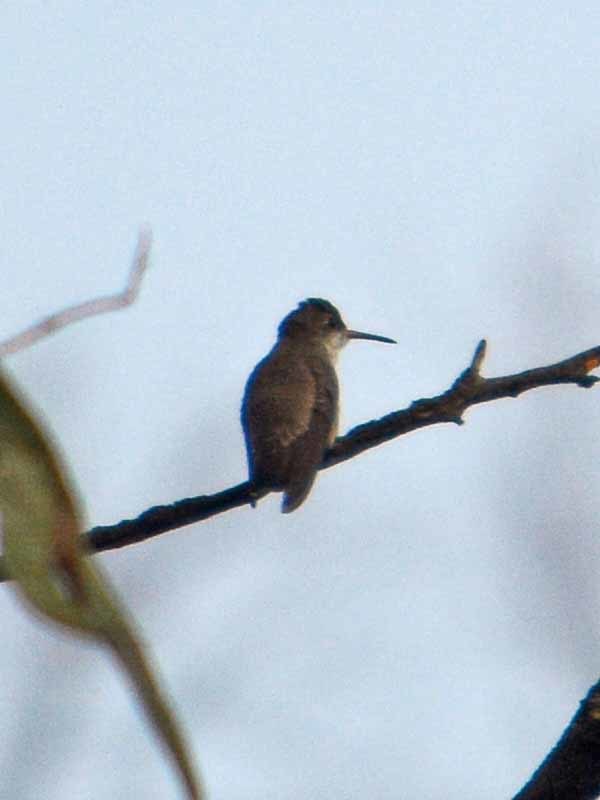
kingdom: Animalia
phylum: Chordata
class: Aves
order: Apodiformes
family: Trochilidae
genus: Leucolia
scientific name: Leucolia violiceps
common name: Violet-crowned hummingbird
